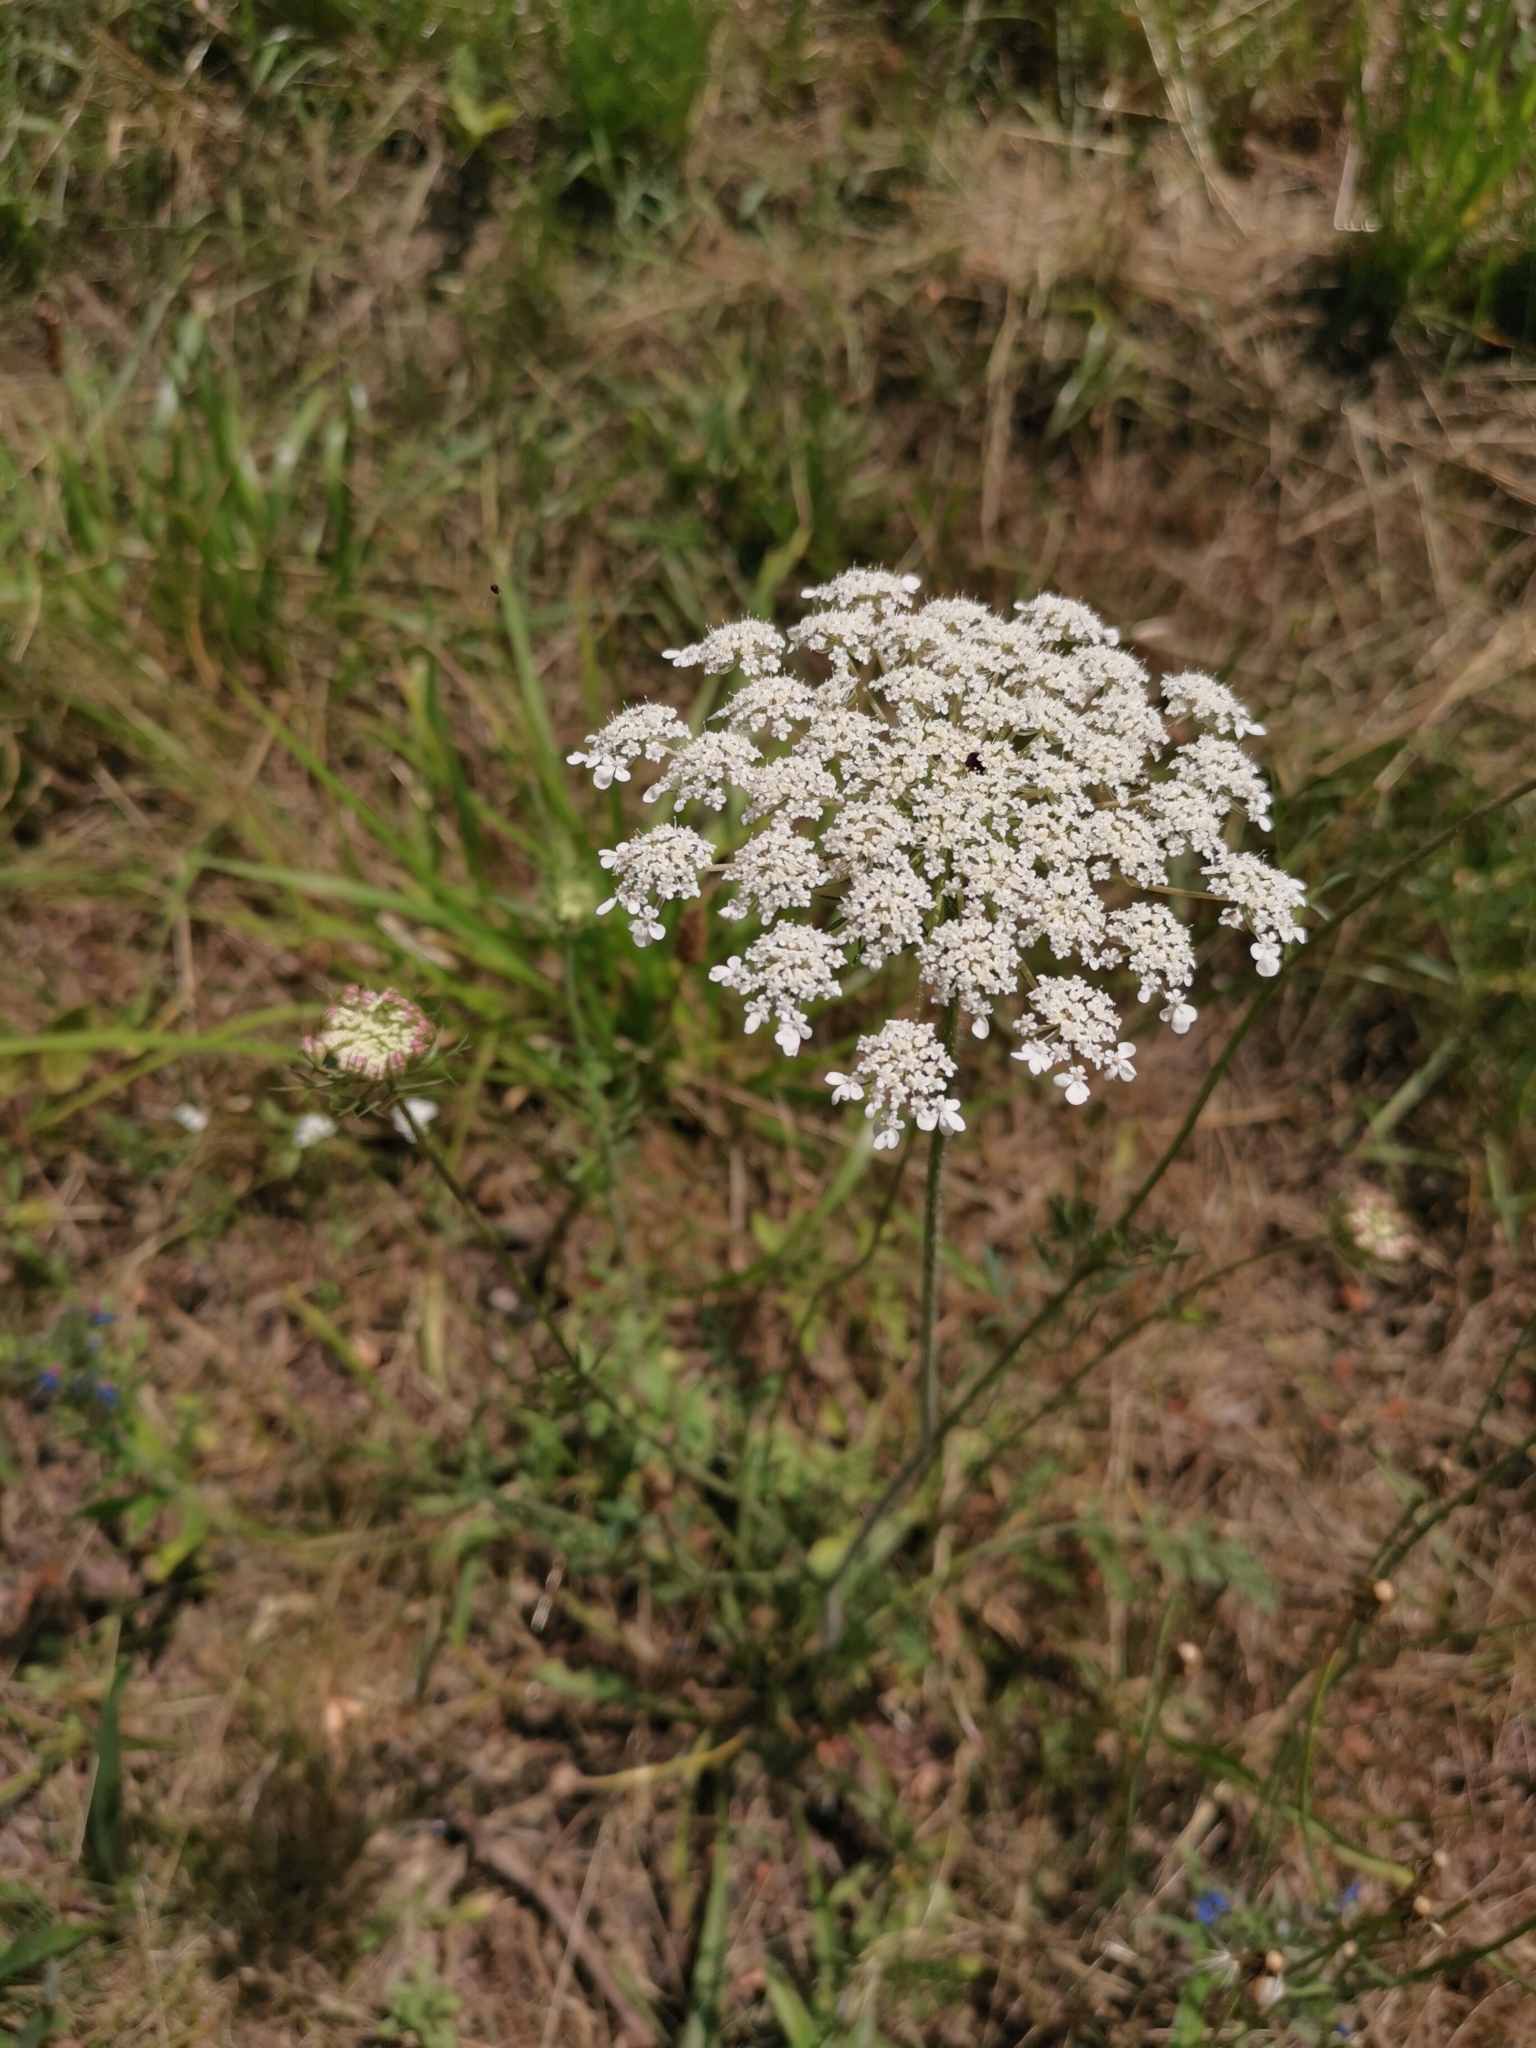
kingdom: Plantae
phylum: Tracheophyta
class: Magnoliopsida
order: Apiales
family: Apiaceae
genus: Daucus
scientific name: Daucus carota
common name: Wild carrot
